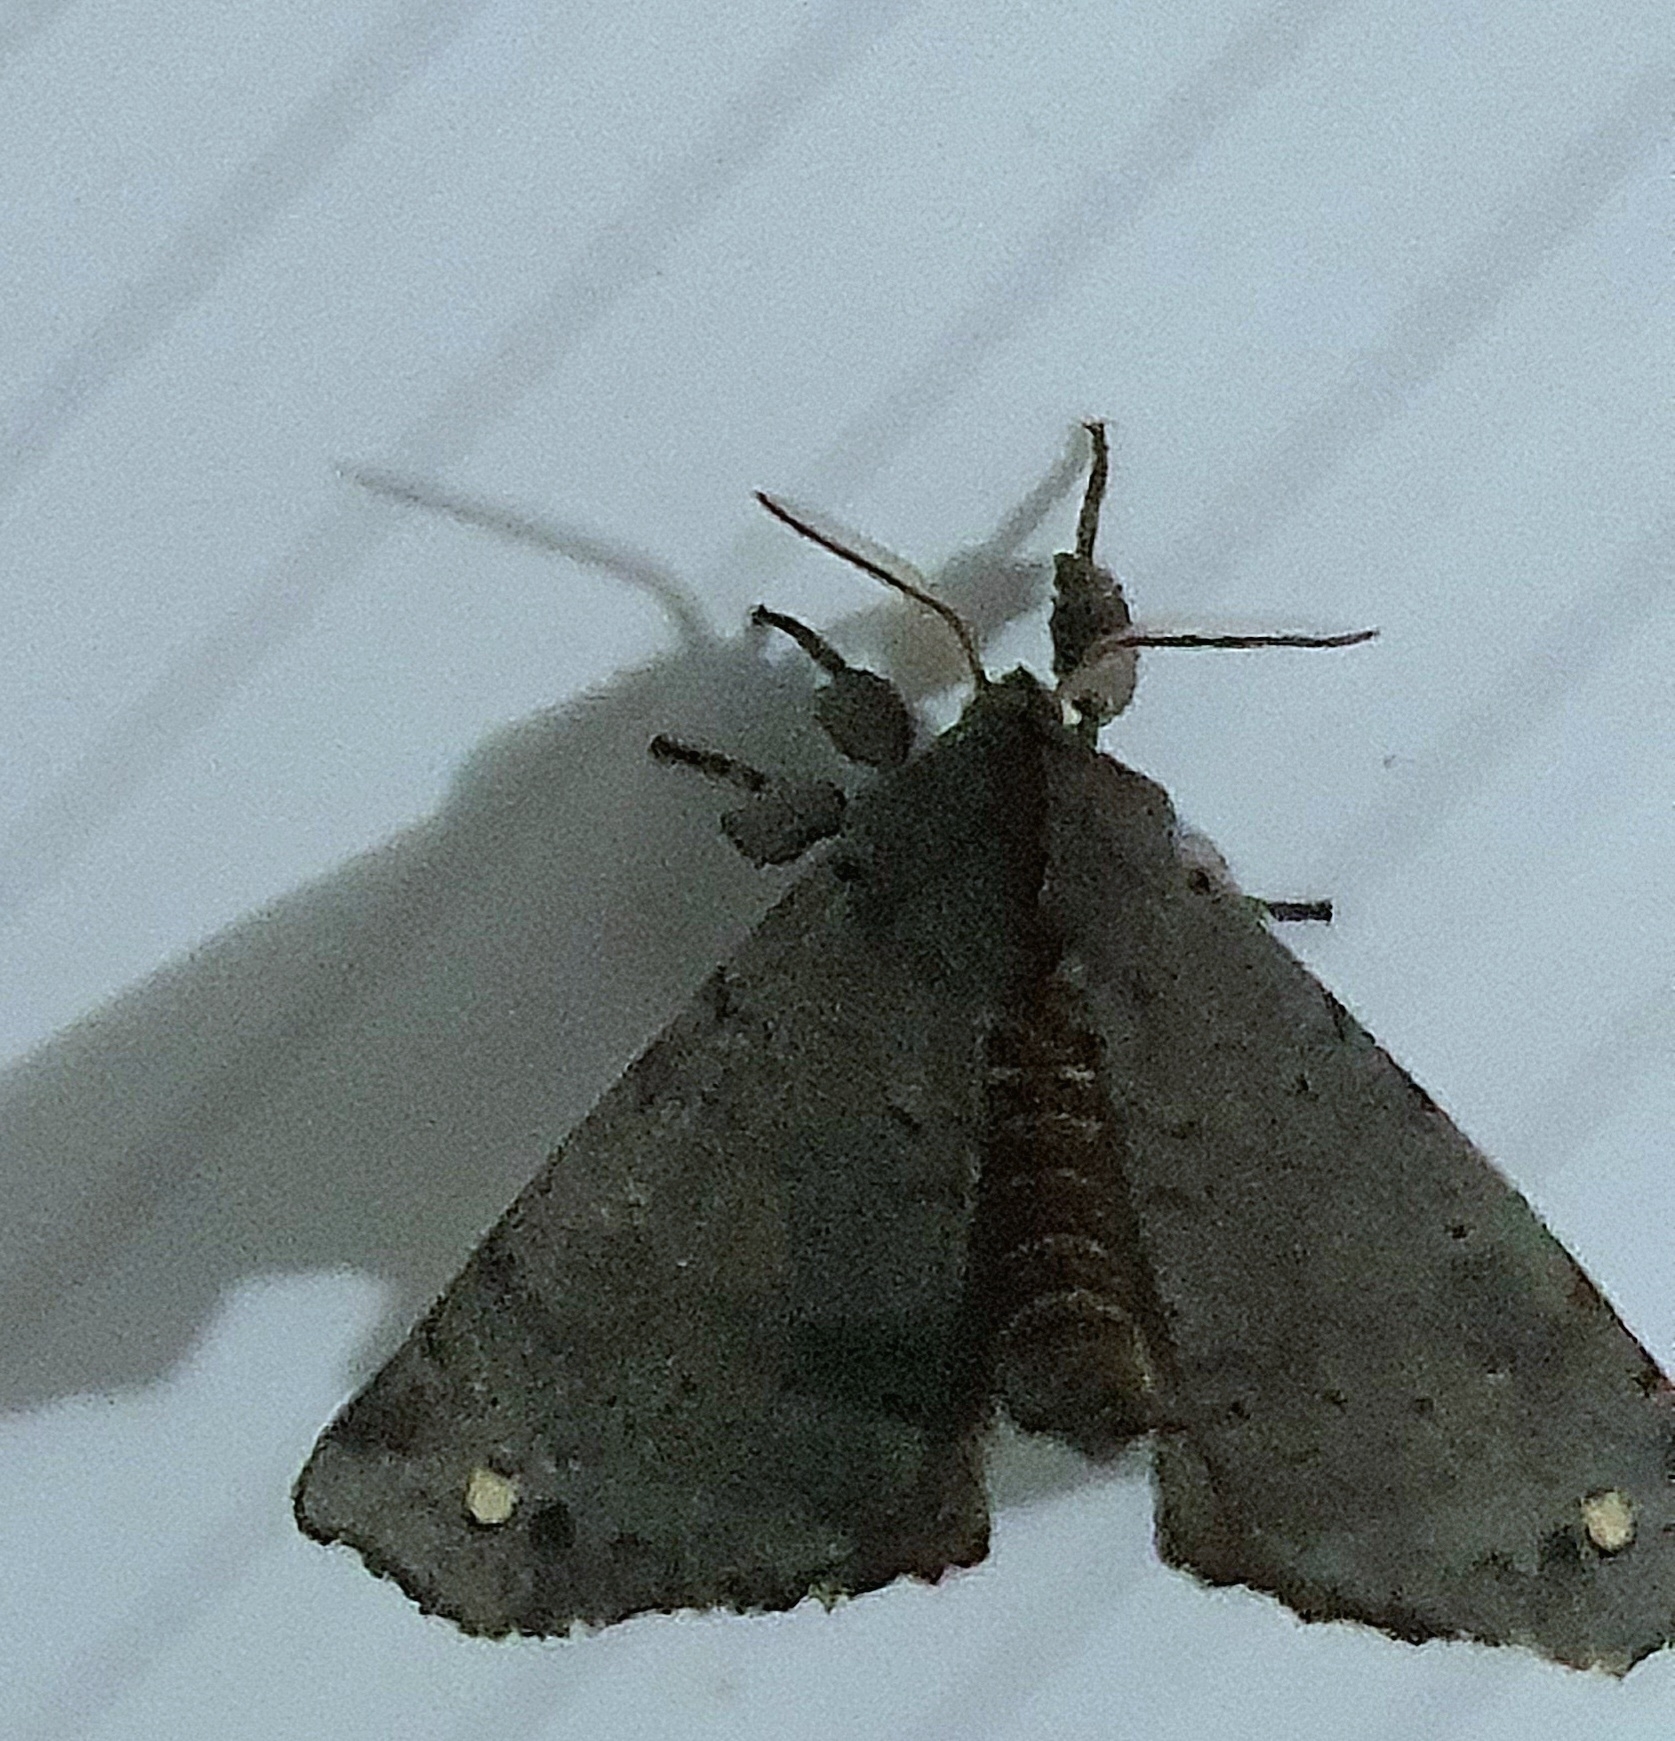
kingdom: Animalia
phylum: Arthropoda
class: Insecta
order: Lepidoptera
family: Apatelodidae
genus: Olceclostera
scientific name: Olceclostera castrona
